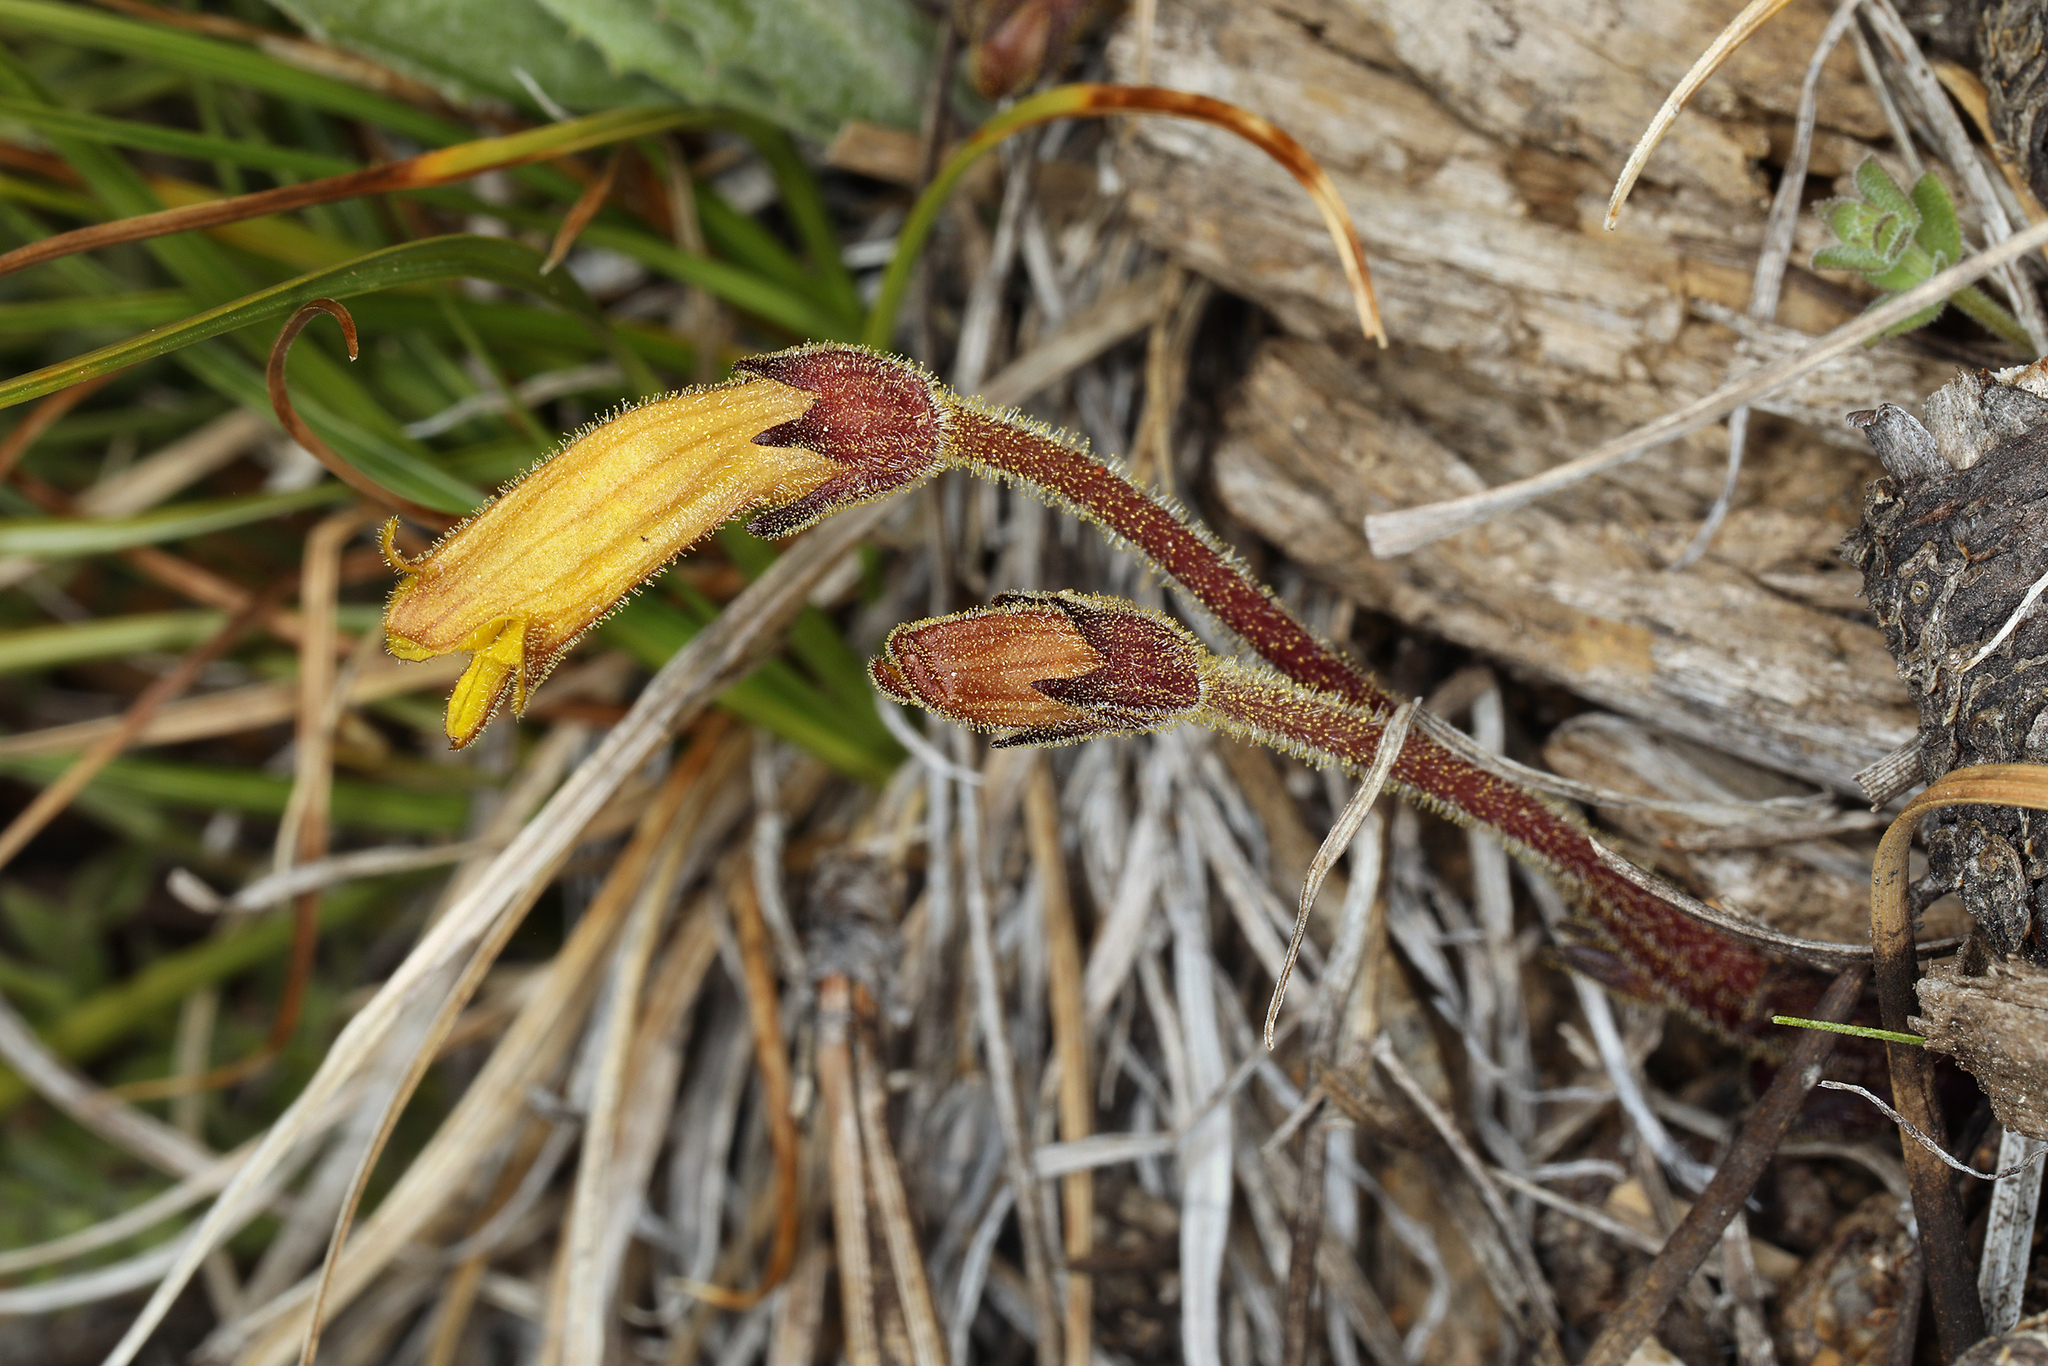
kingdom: Plantae
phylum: Tracheophyta
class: Magnoliopsida
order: Lamiales
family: Orobanchaceae
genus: Aphyllon
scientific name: Aphyllon epigalium
